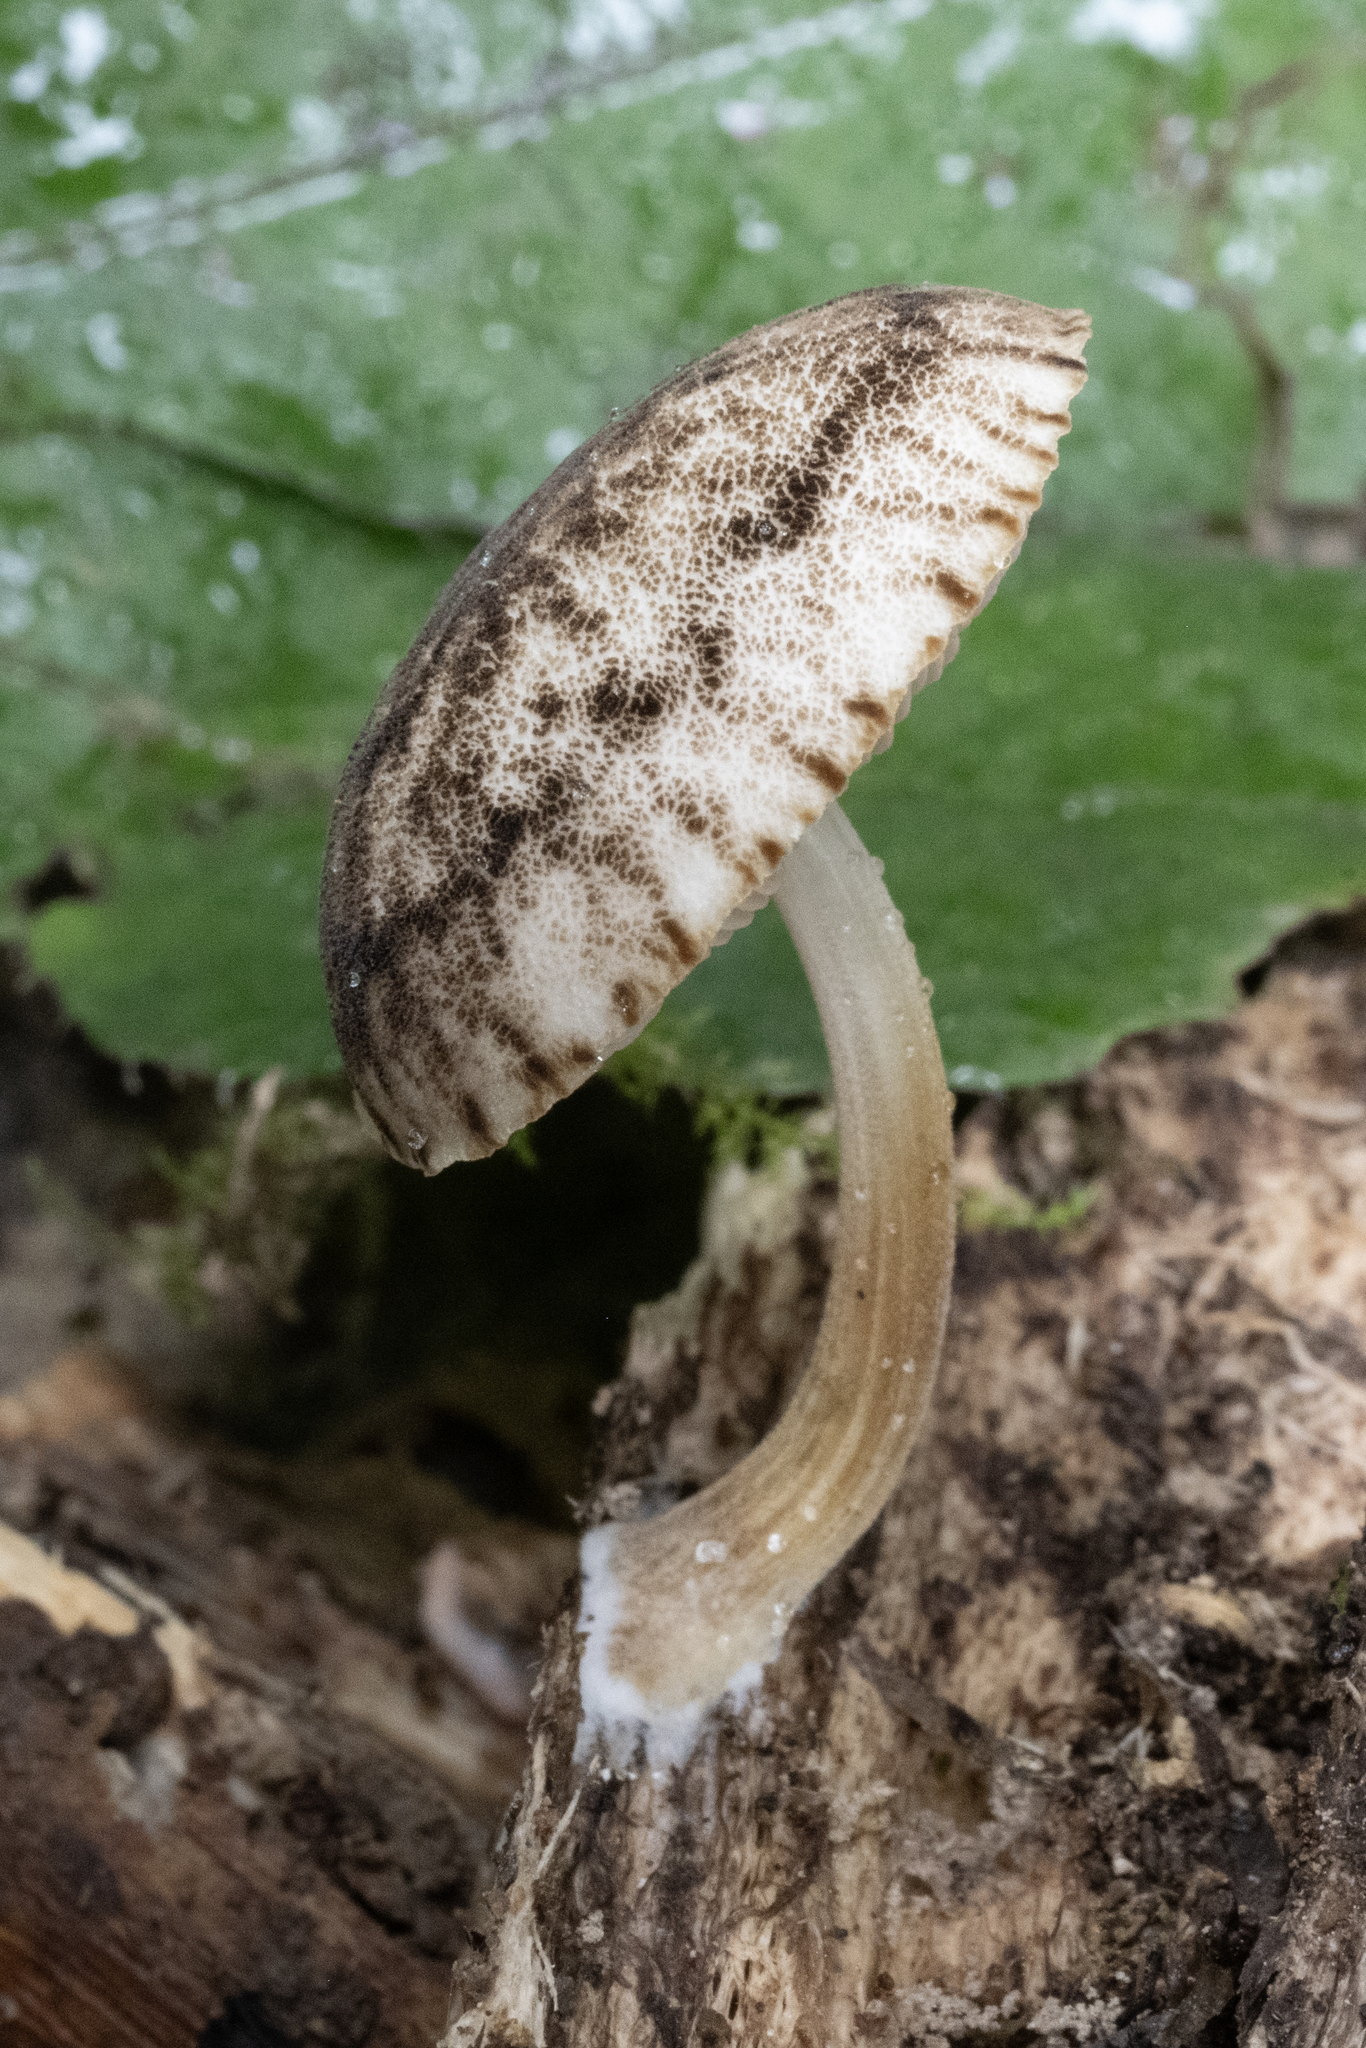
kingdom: Fungi
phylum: Basidiomycota
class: Agaricomycetes
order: Agaricales
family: Pluteaceae
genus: Pluteus
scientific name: Pluteus readiarum
